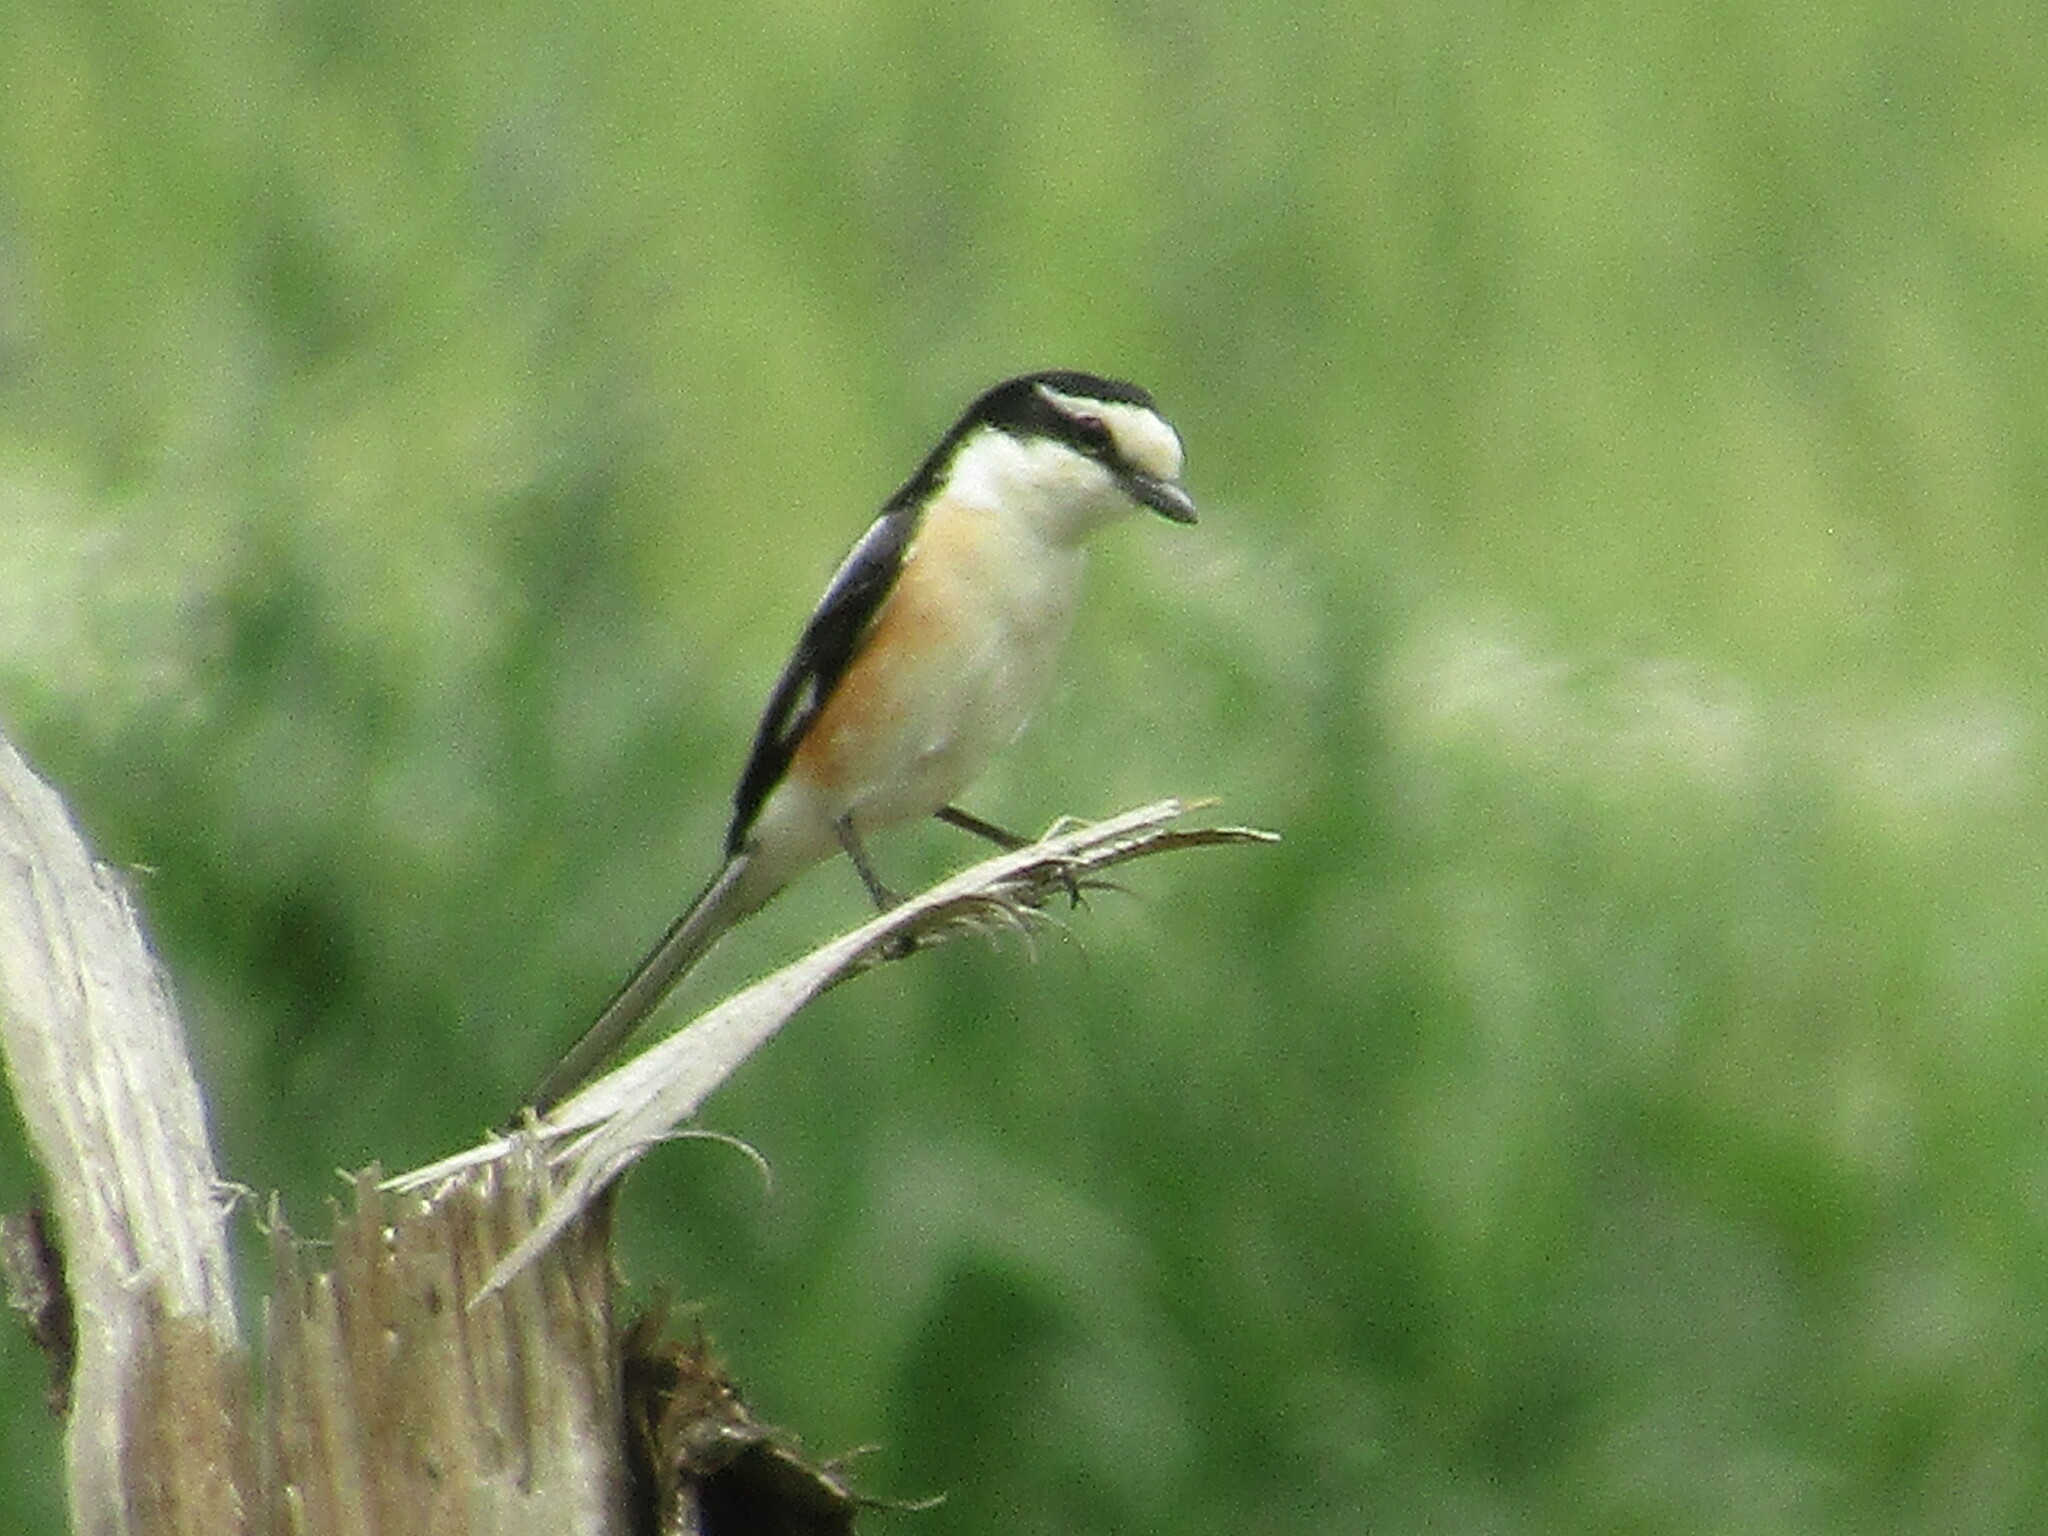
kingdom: Animalia
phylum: Chordata
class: Aves
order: Passeriformes
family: Laniidae
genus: Lanius
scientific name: Lanius nubicus
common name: Masked shrike
